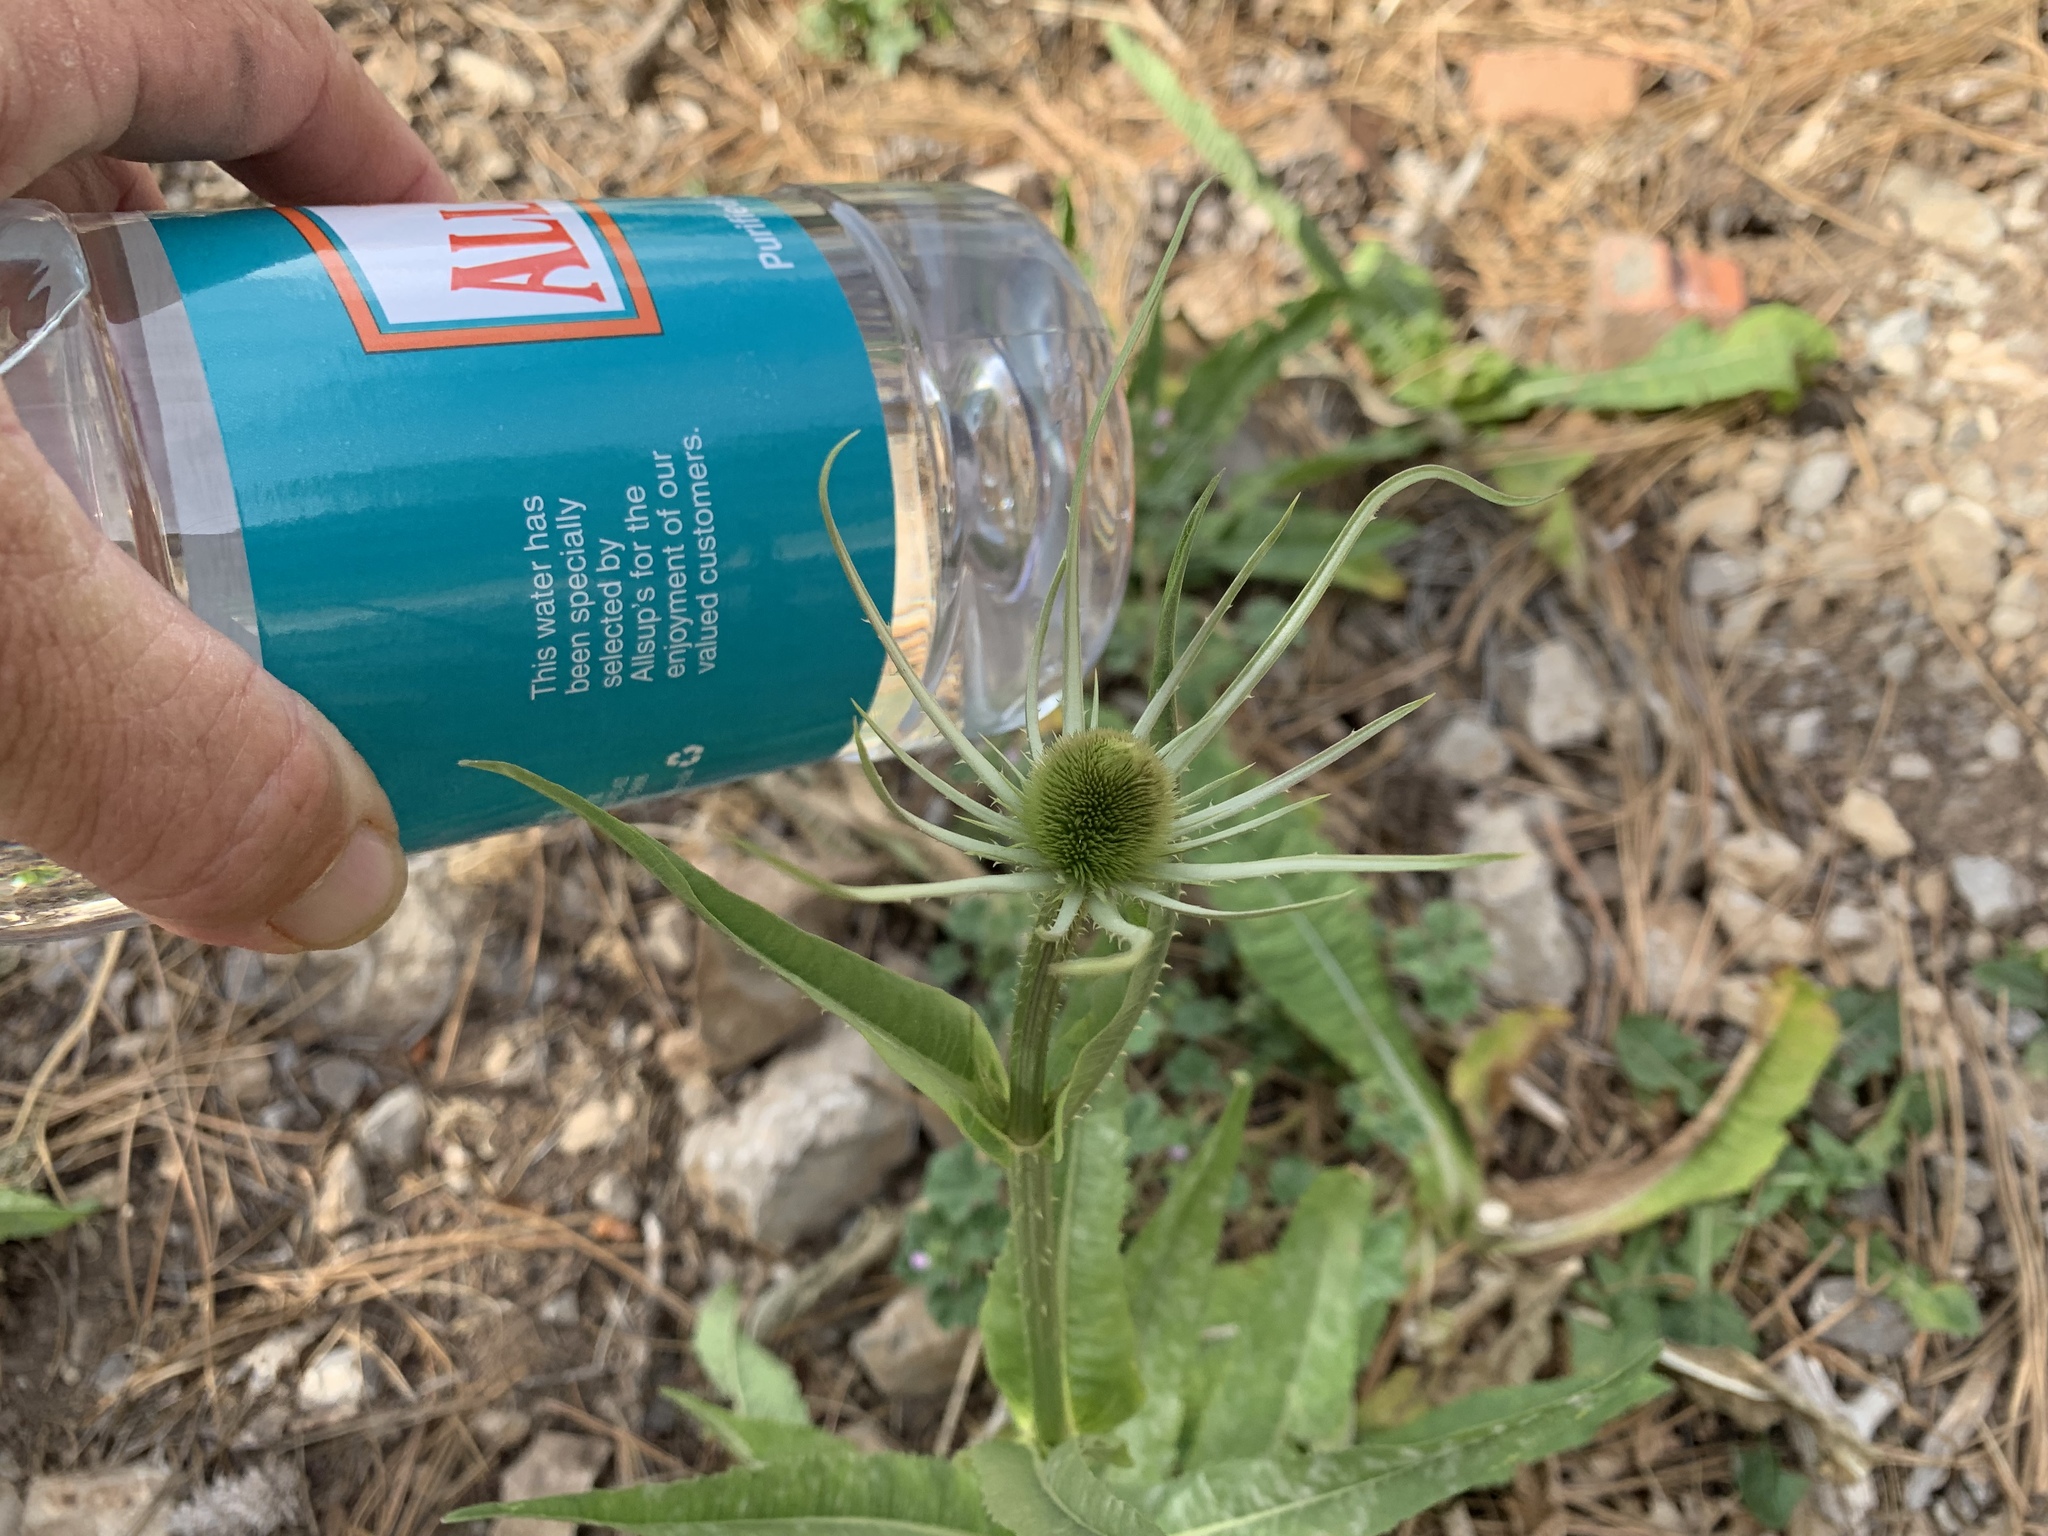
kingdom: Plantae
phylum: Tracheophyta
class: Magnoliopsida
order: Dipsacales
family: Caprifoliaceae
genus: Dipsacus
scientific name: Dipsacus fullonum
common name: Teasel
